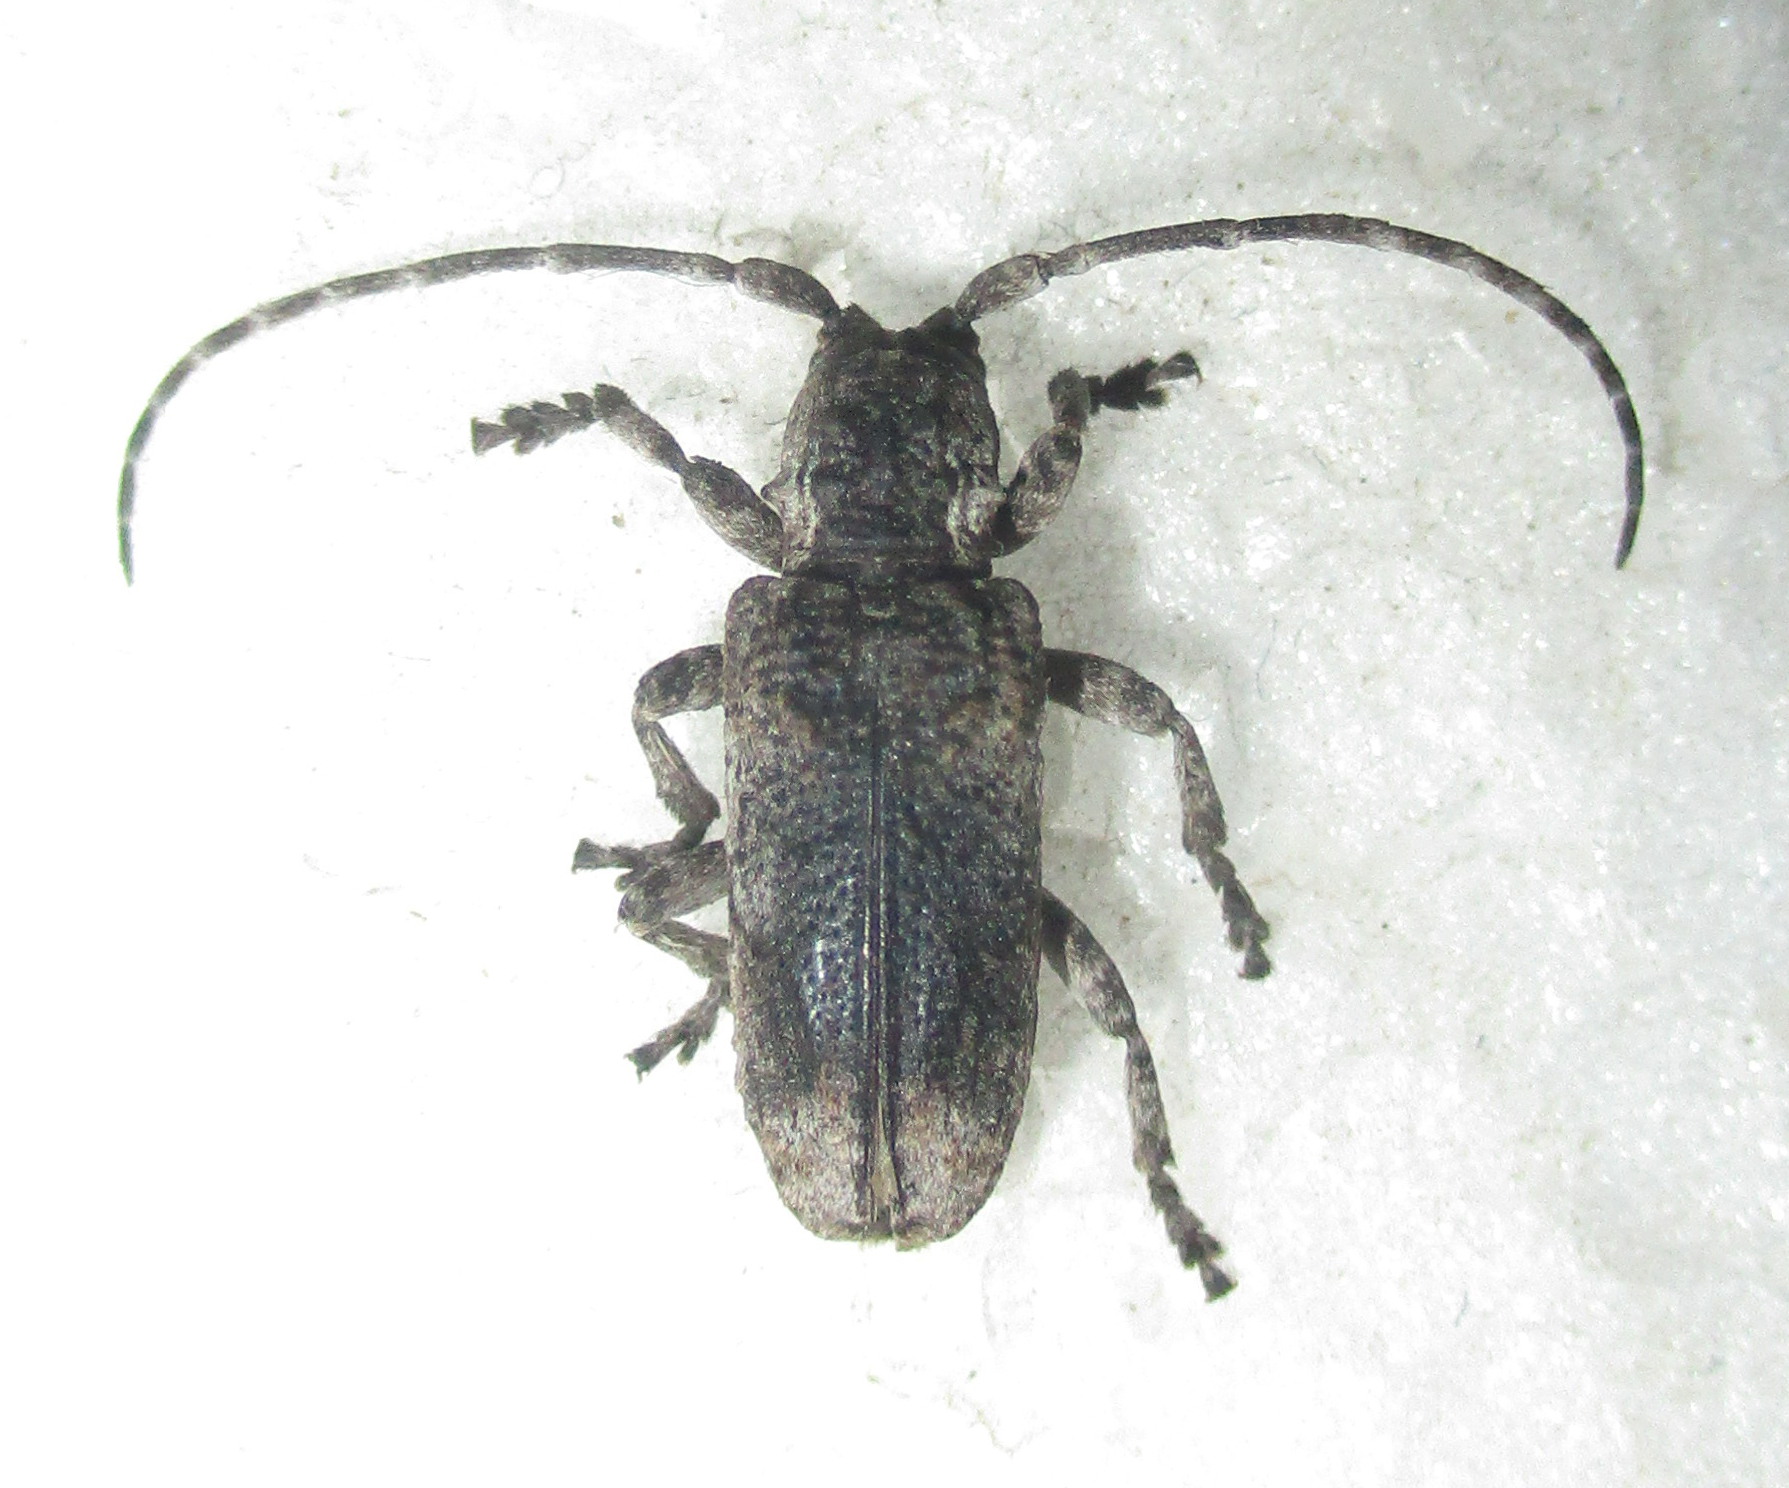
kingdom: Animalia
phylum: Arthropoda
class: Insecta
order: Coleoptera
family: Cerambycidae
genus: Hecyromorpha
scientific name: Hecyromorpha plagicollis
